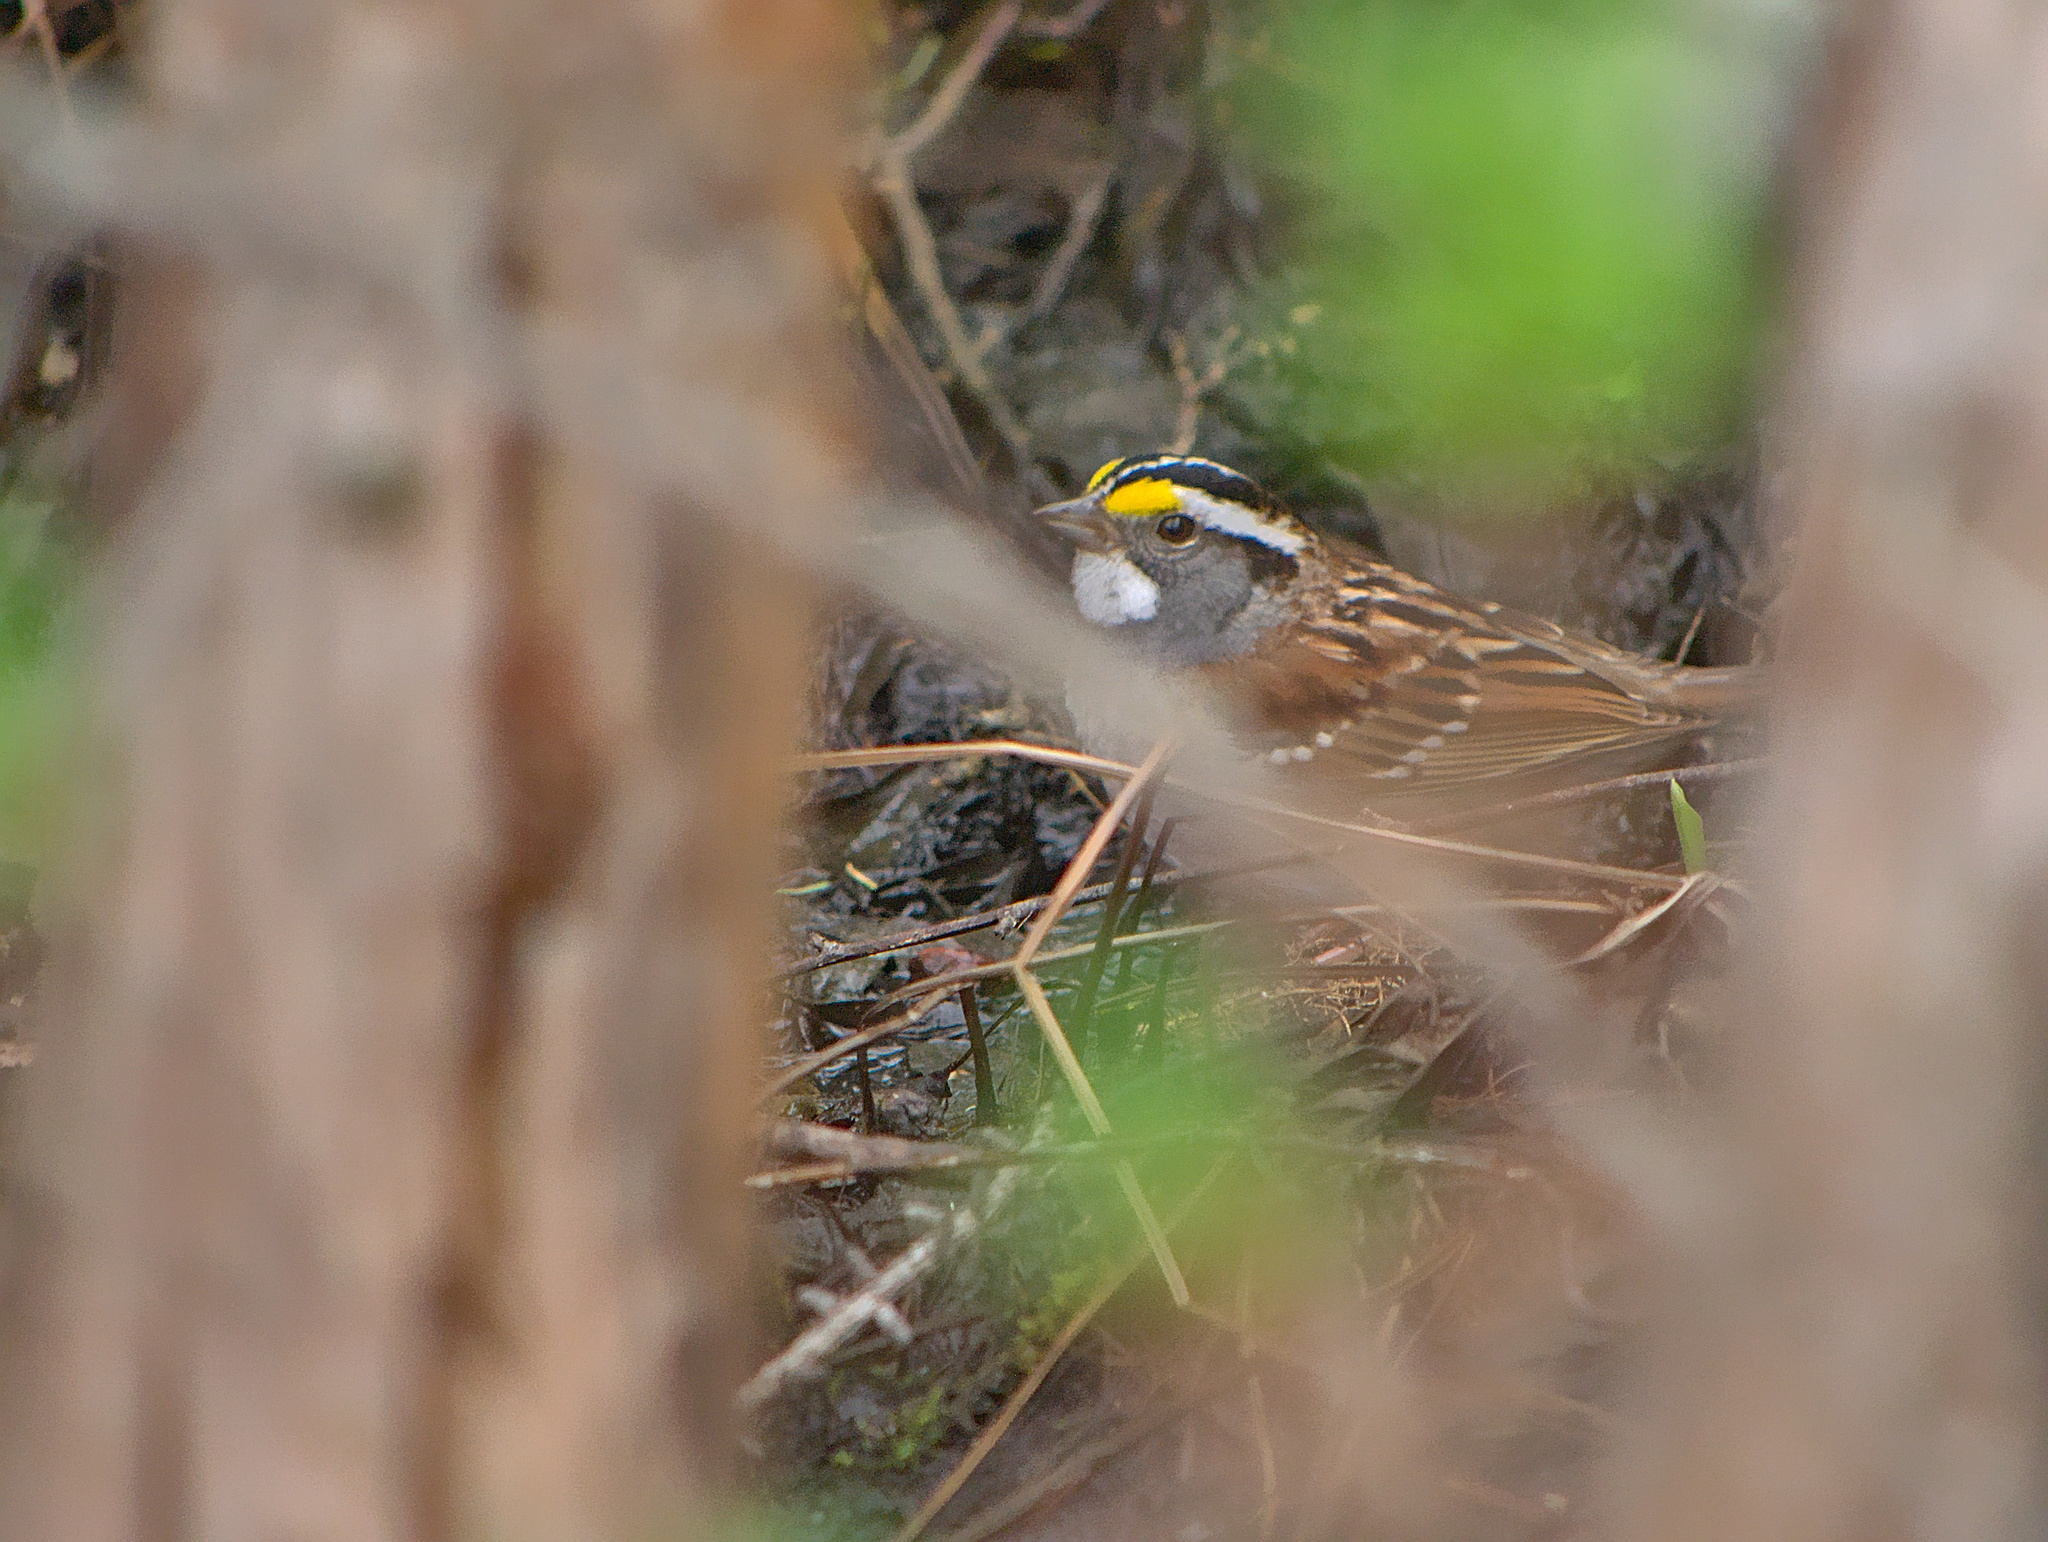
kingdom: Animalia
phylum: Chordata
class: Aves
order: Passeriformes
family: Passerellidae
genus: Zonotrichia
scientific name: Zonotrichia albicollis
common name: White-throated sparrow
